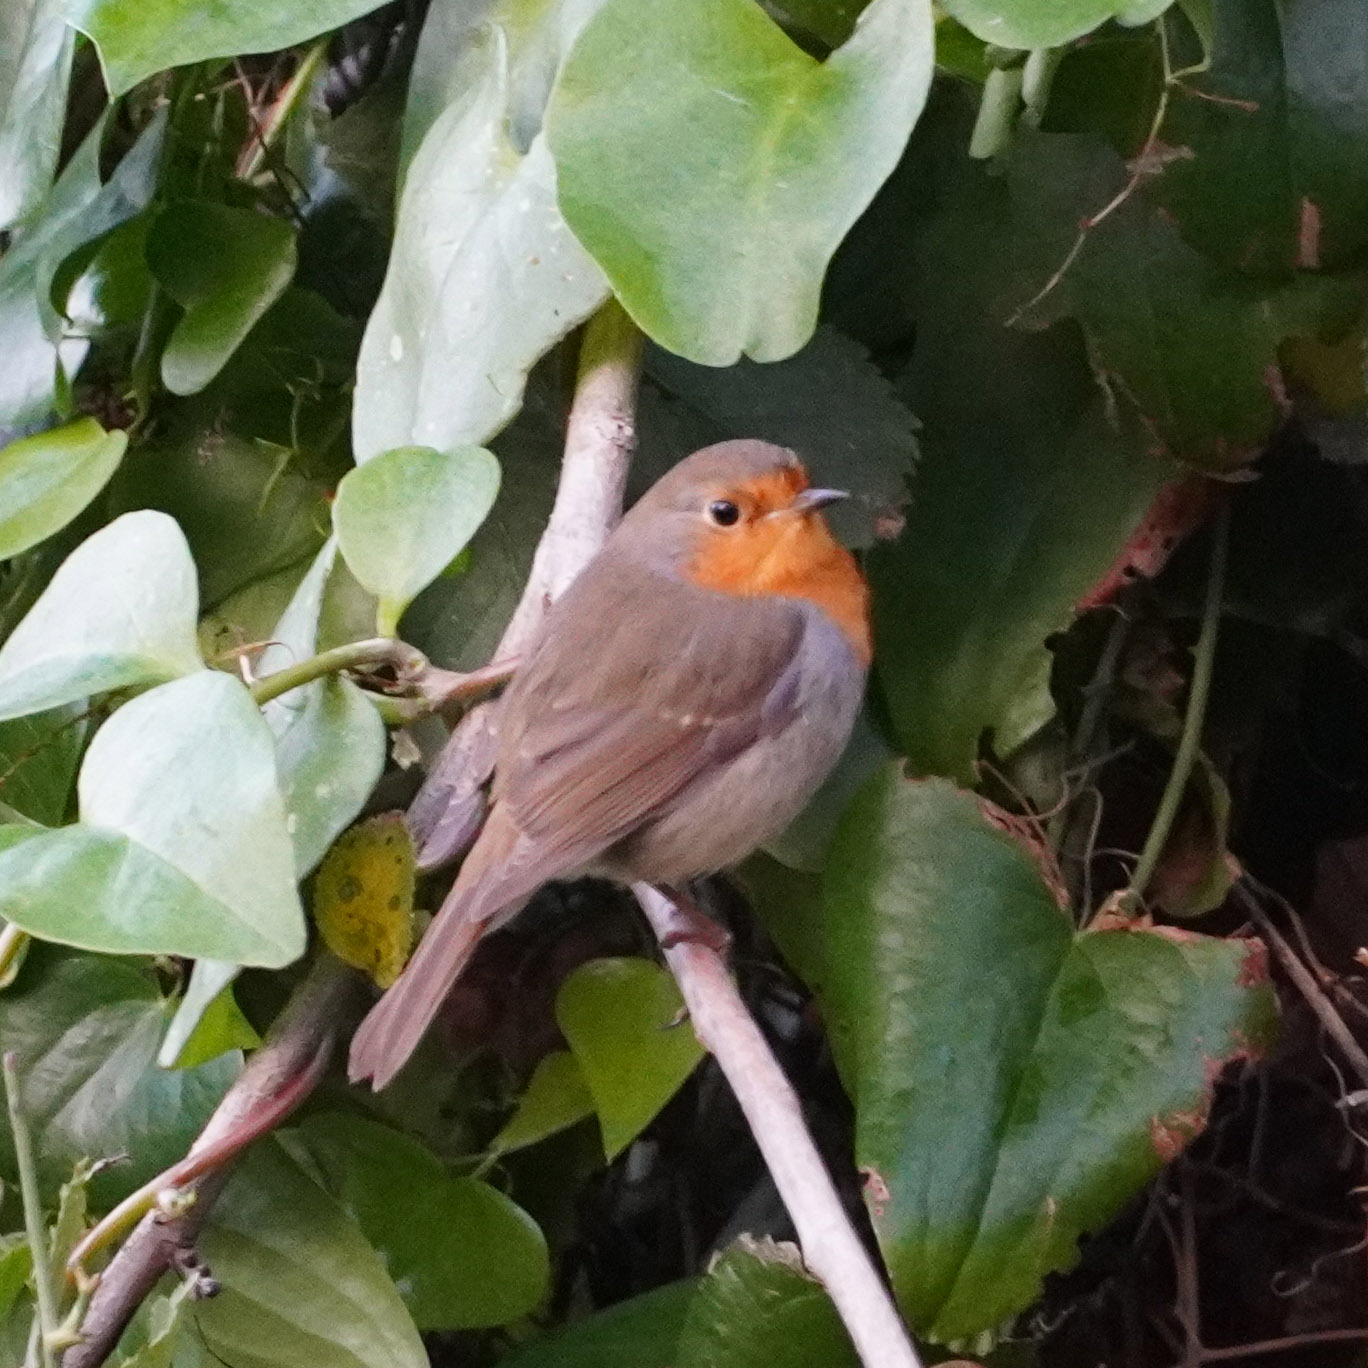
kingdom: Animalia
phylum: Chordata
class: Aves
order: Passeriformes
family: Muscicapidae
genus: Erithacus
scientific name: Erithacus rubecula
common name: European robin
